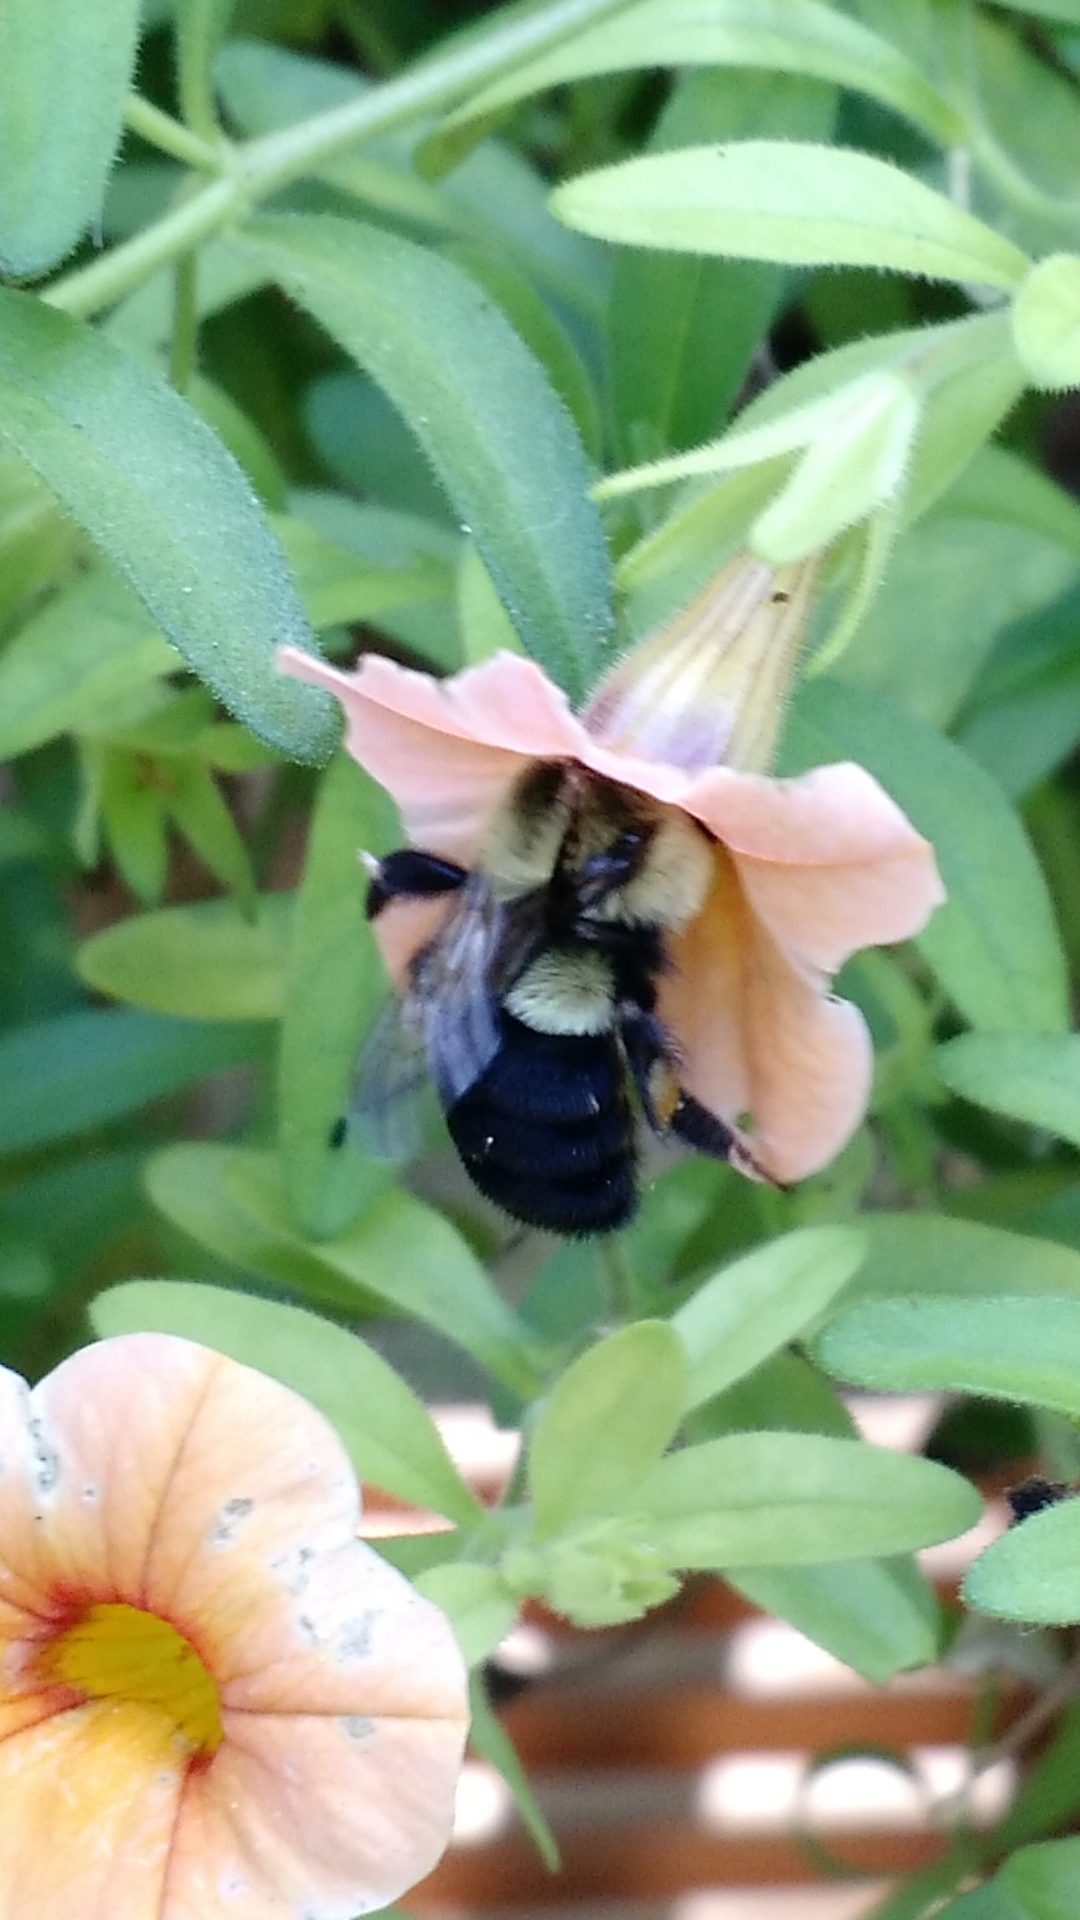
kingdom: Animalia
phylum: Arthropoda
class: Insecta
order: Hymenoptera
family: Apidae
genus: Bombus
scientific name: Bombus impatiens
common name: Common eastern bumble bee
